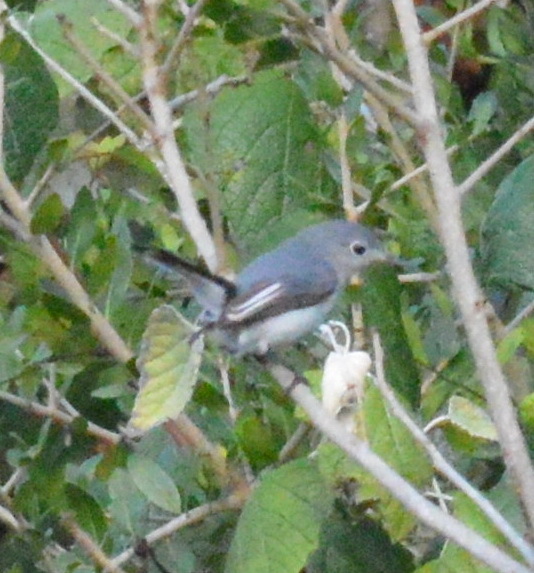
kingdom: Animalia
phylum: Chordata
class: Aves
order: Passeriformes
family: Polioptilidae
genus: Polioptila
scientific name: Polioptila caerulea
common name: Blue-gray gnatcatcher
